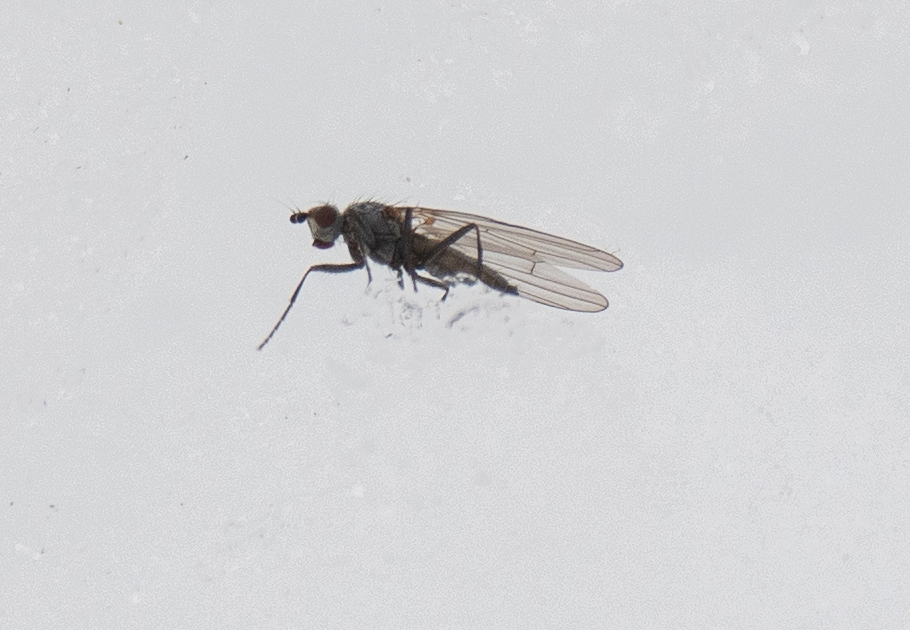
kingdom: Animalia
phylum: Arthropoda
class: Insecta
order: Diptera
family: Heleomyzidae
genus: Orbellia
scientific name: Orbellia petersoni
